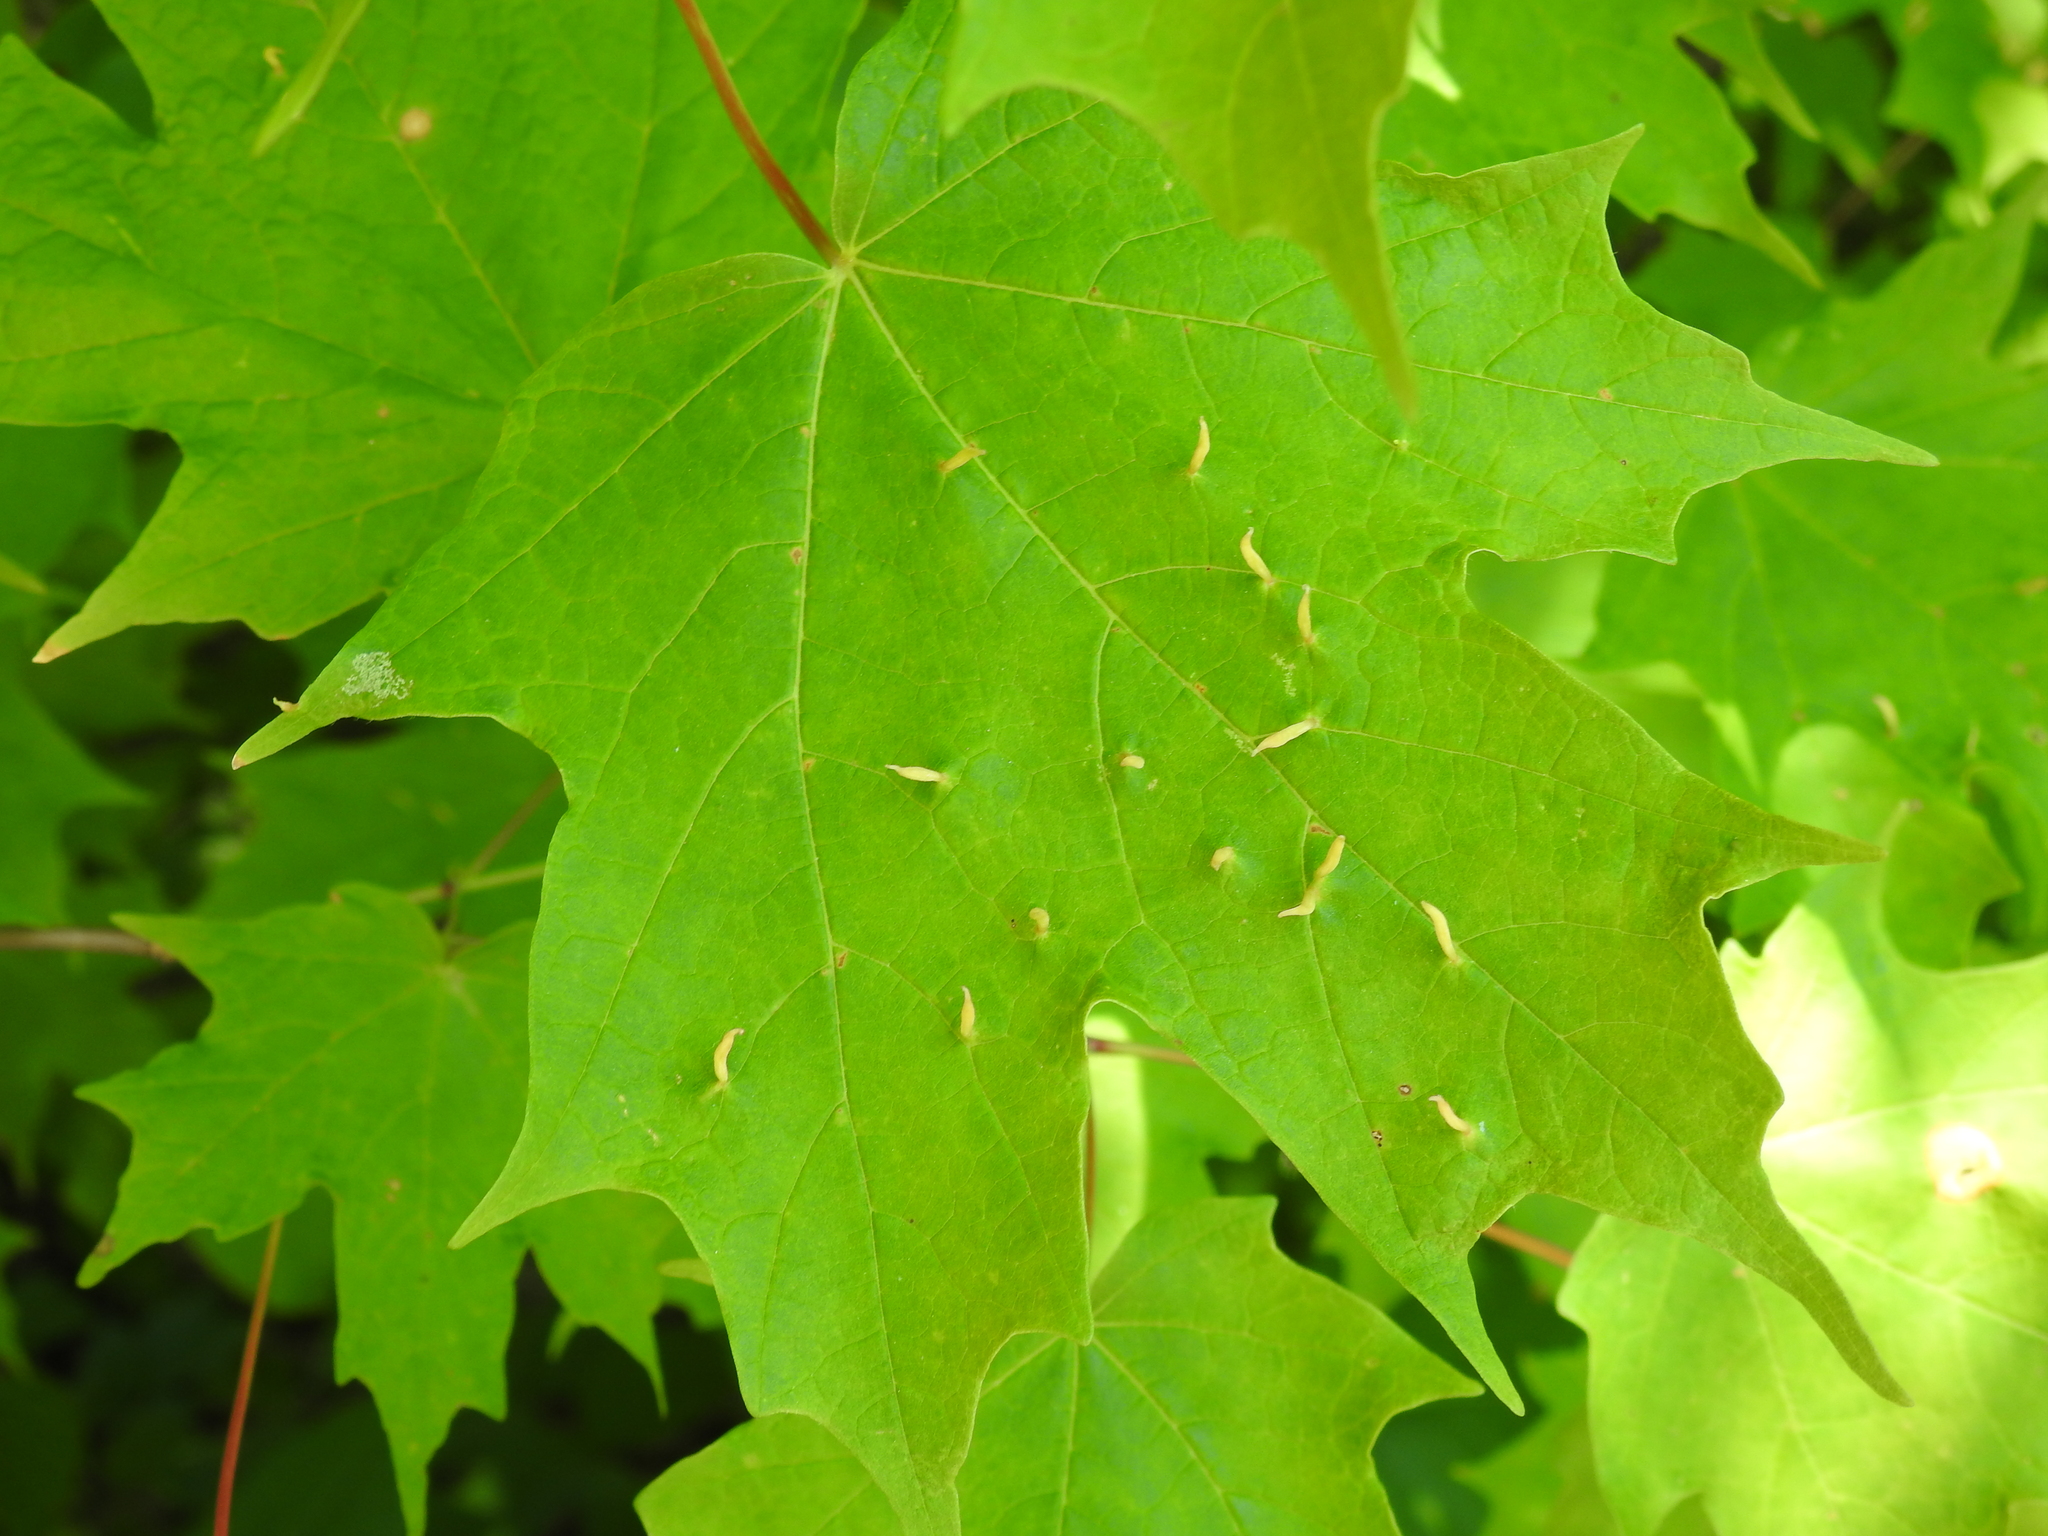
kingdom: Animalia
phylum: Arthropoda
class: Arachnida
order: Trombidiformes
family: Eriophyidae
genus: Vasates
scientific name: Vasates aceriscrumena
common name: Maple spindle gall mite
